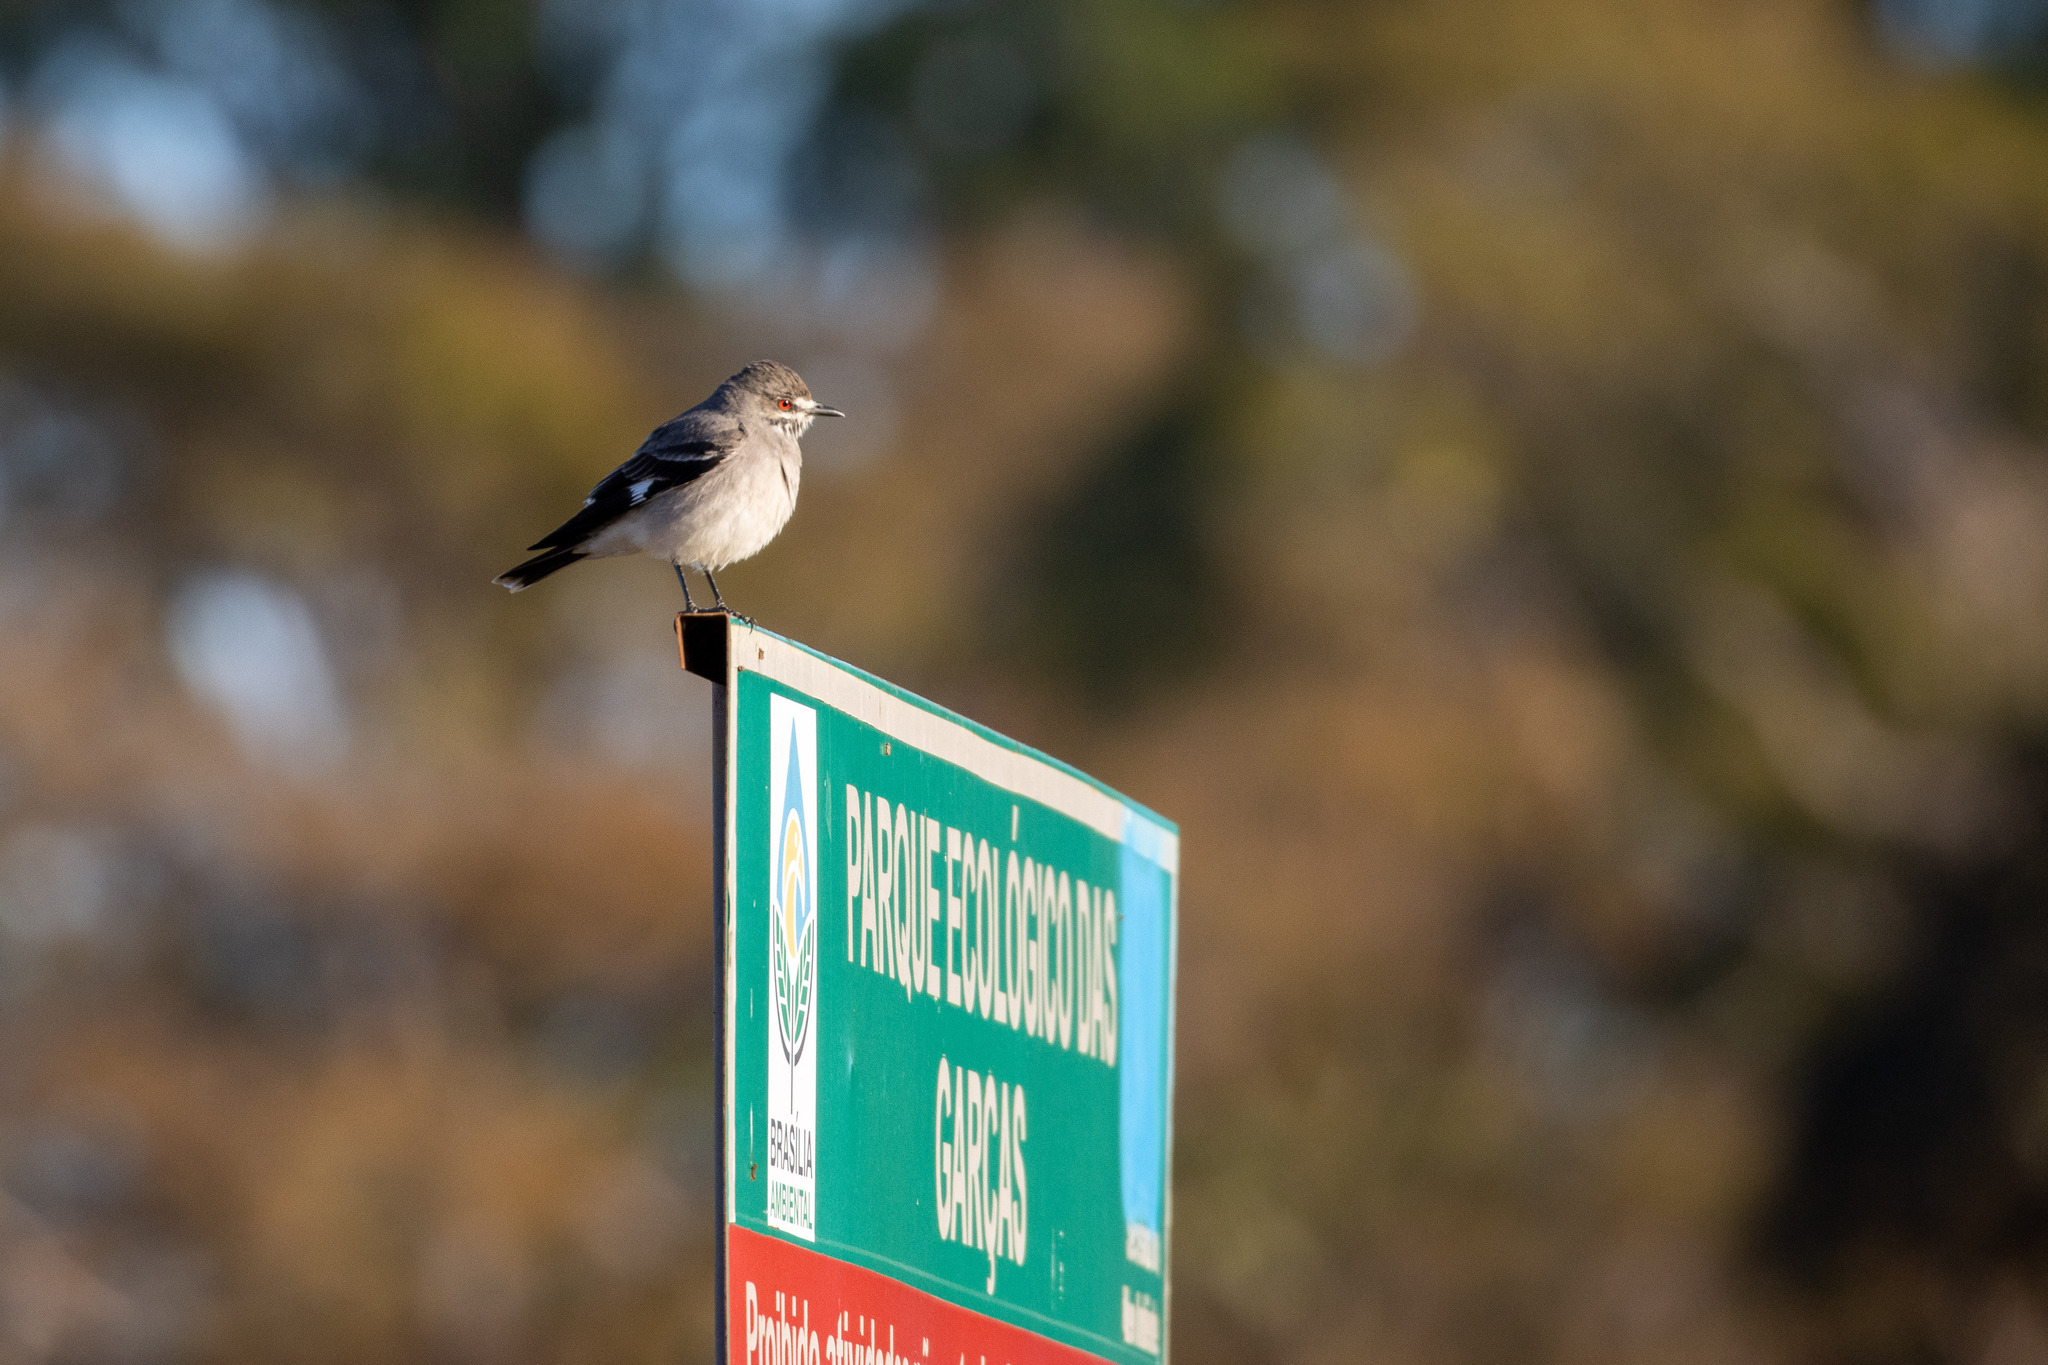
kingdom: Animalia
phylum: Chordata
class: Aves
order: Passeriformes
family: Tyrannidae
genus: Xolmis
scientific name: Xolmis cinereus
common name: Grey monjita
